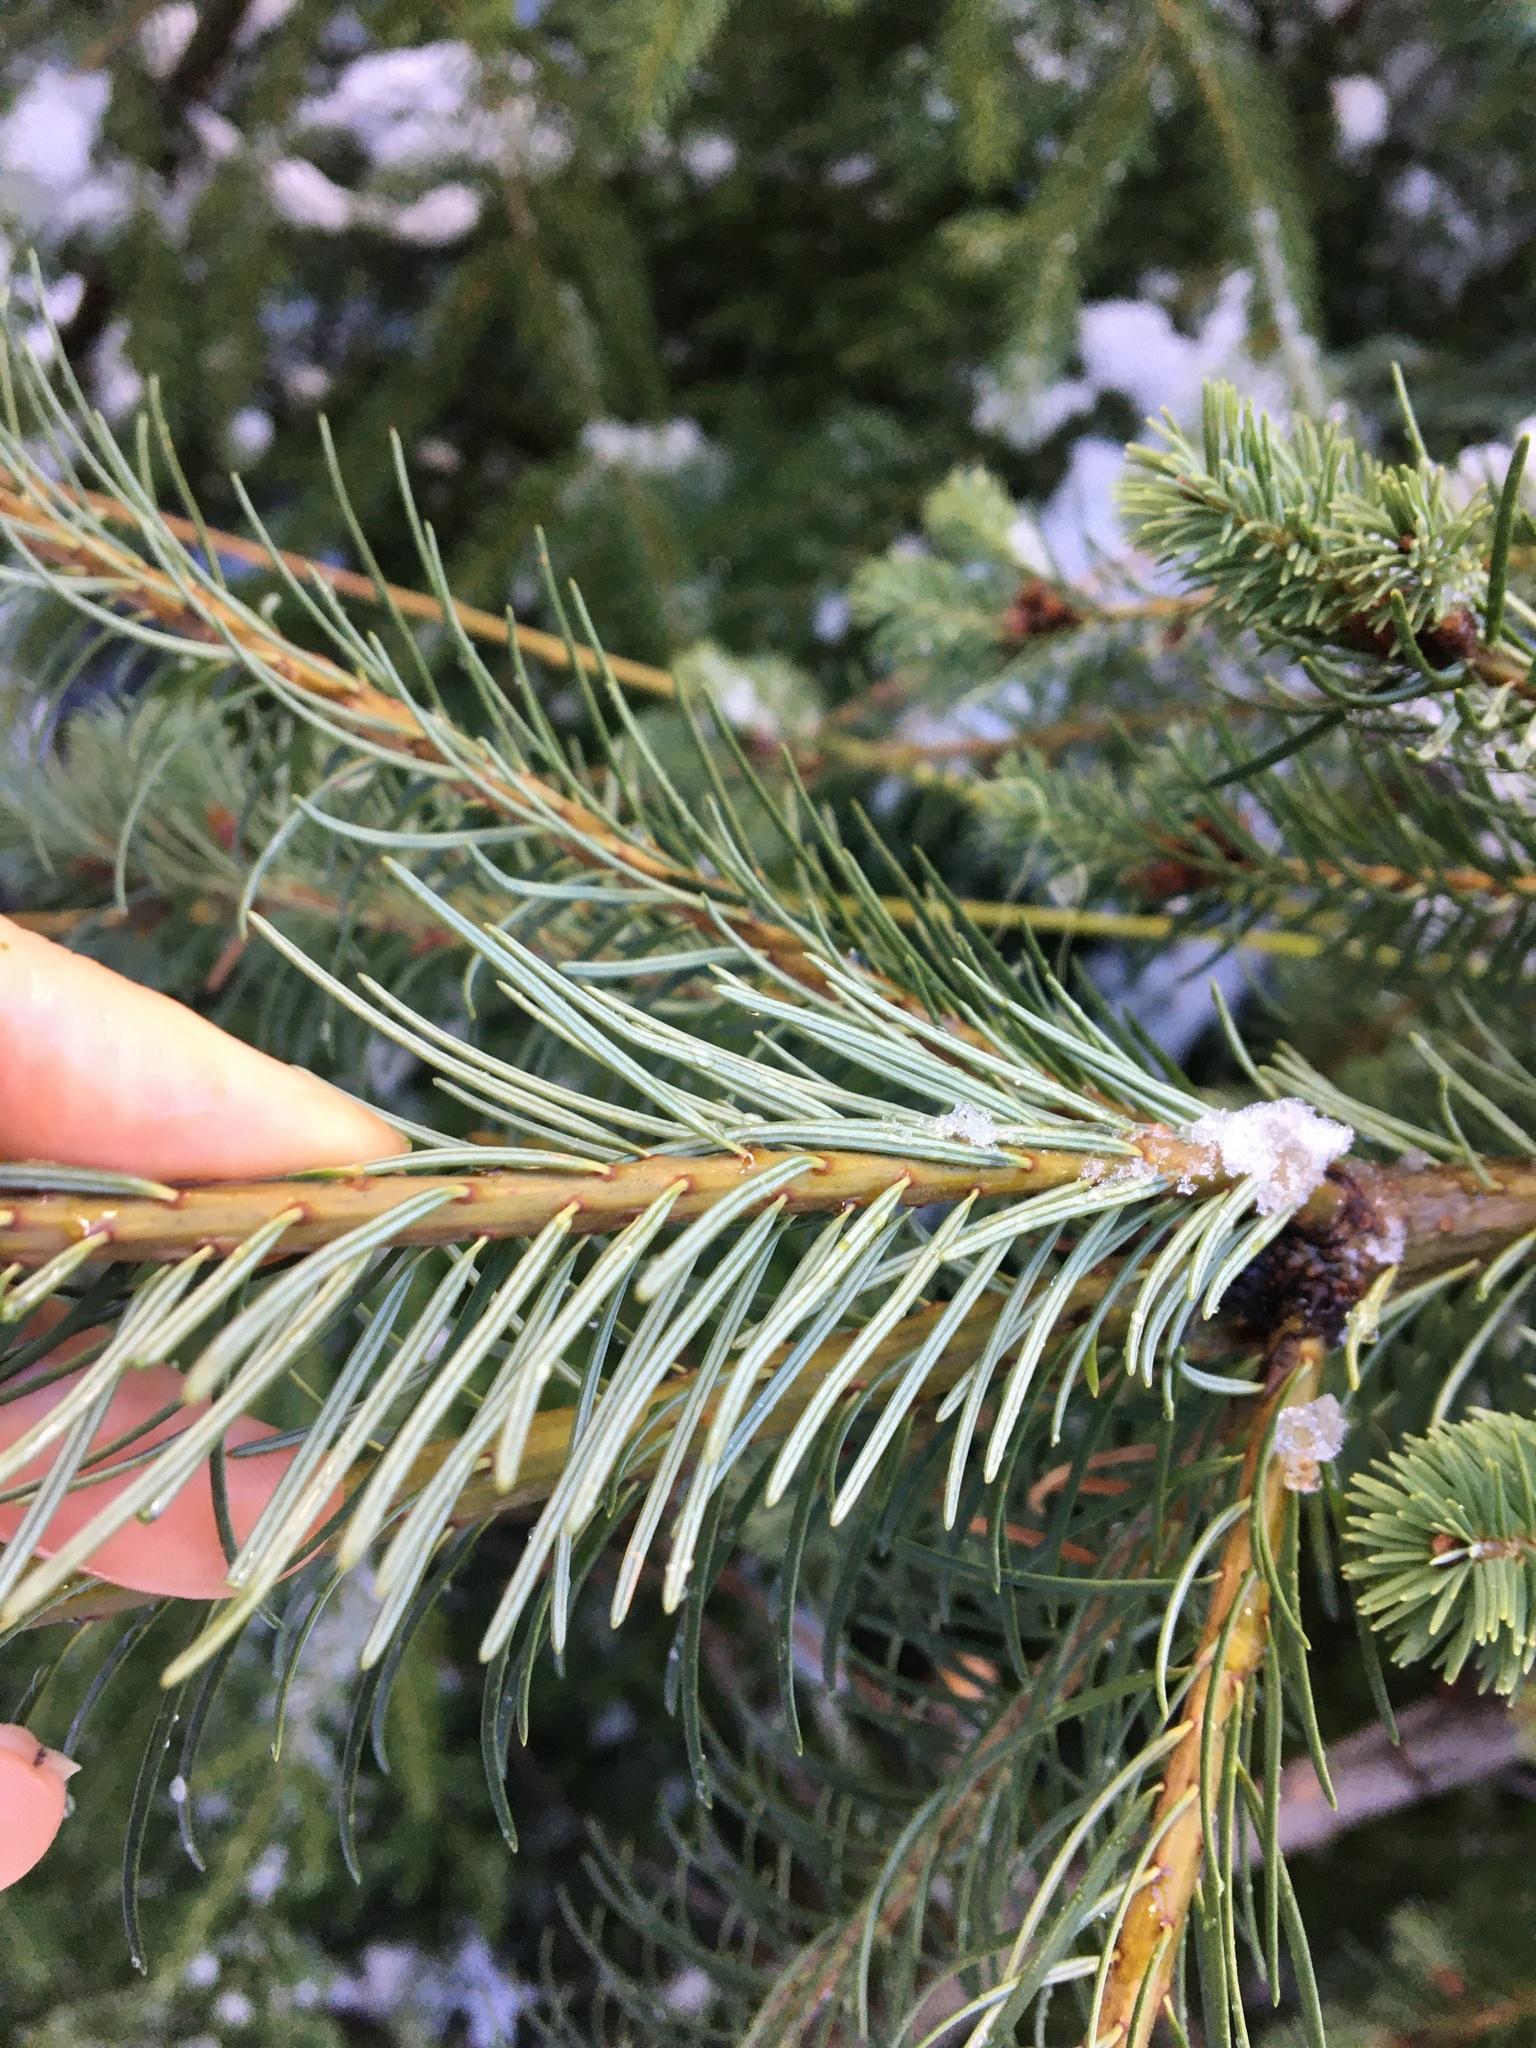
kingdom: Plantae
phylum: Tracheophyta
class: Pinopsida
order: Pinales
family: Pinaceae
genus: Pseudotsuga
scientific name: Pseudotsuga menziesii
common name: Douglas fir
